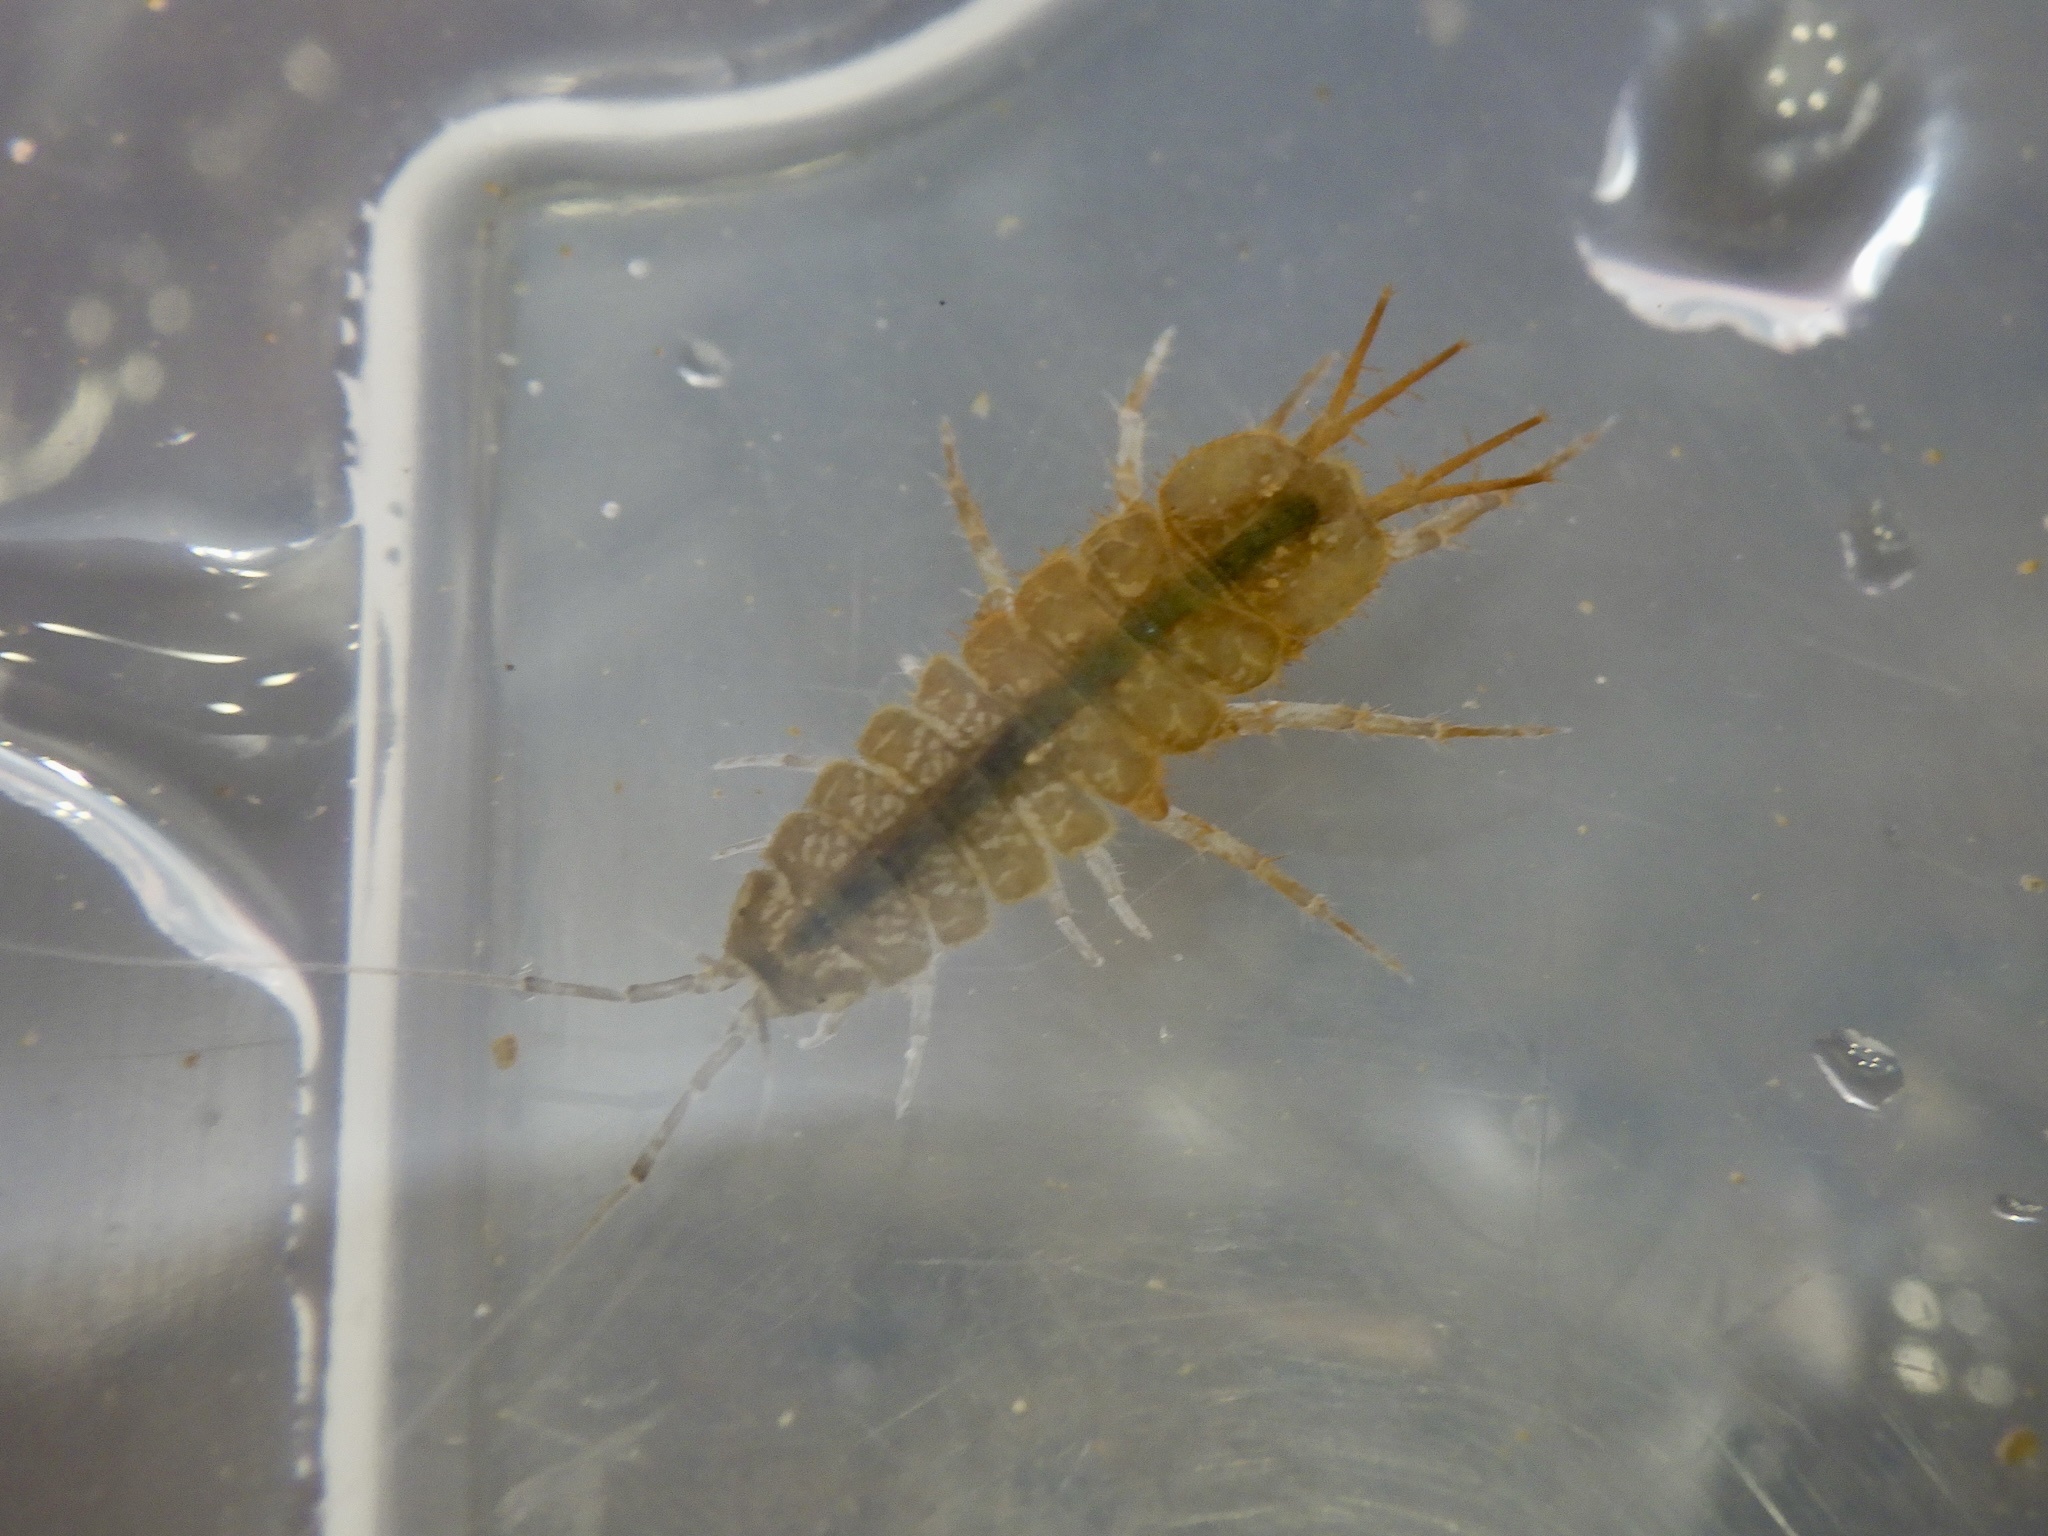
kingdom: Animalia
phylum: Arthropoda
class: Malacostraca
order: Isopoda
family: Asellidae
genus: Asellus
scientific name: Asellus hilgendorfii
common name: Isopod
